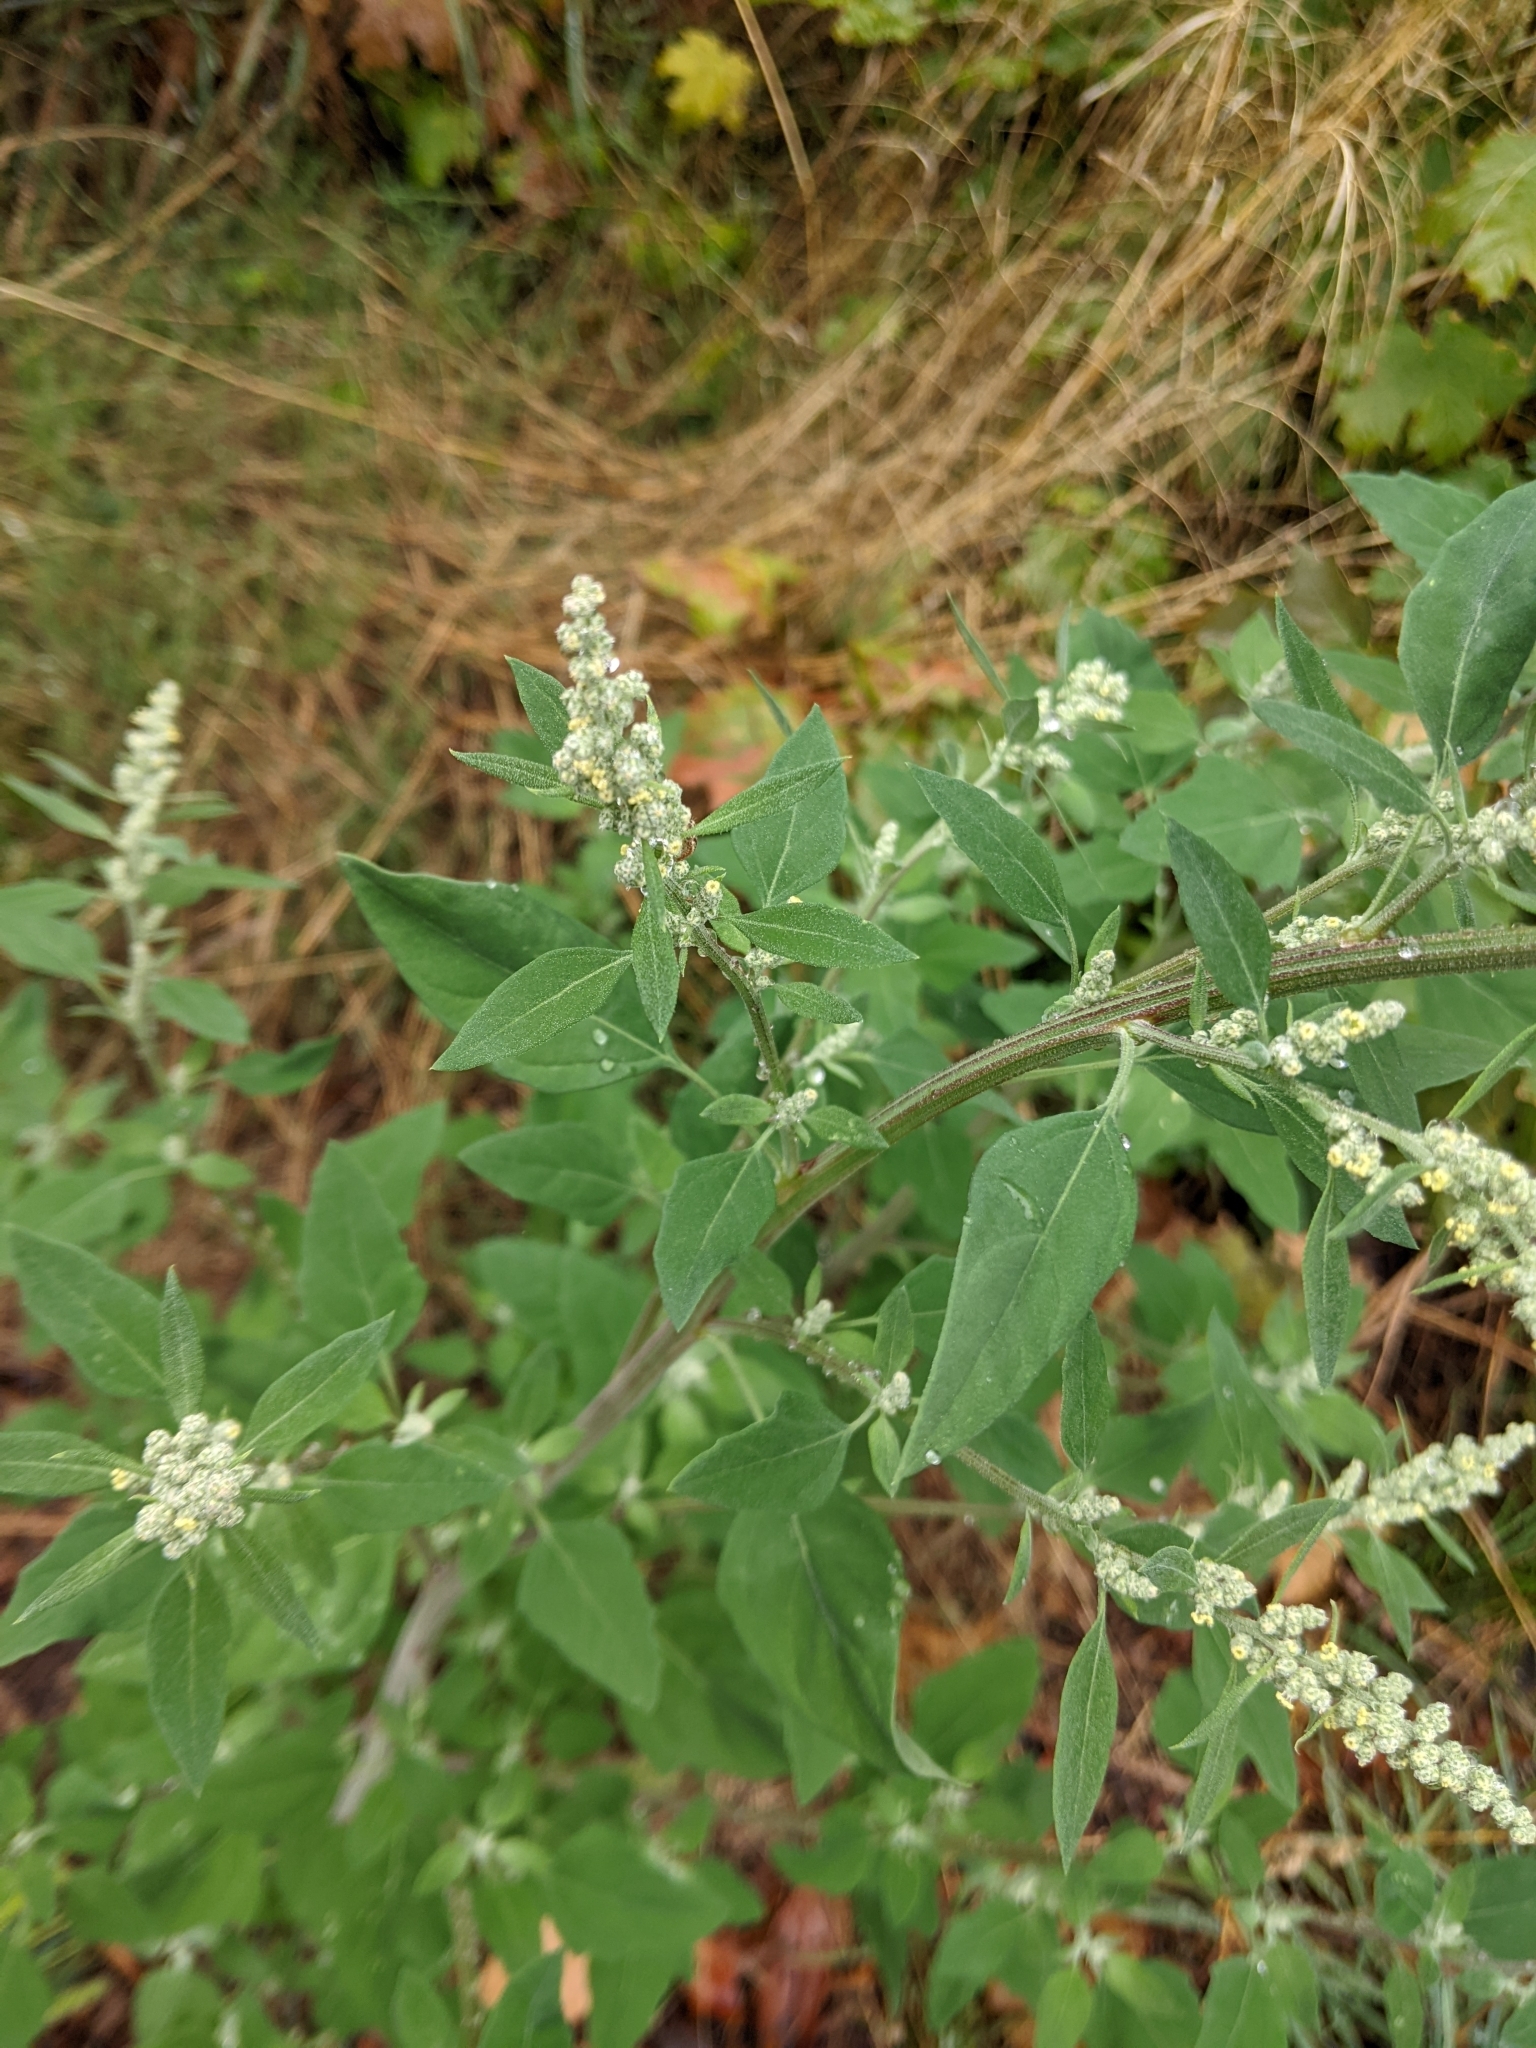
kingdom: Plantae
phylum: Tracheophyta
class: Magnoliopsida
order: Caryophyllales
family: Amaranthaceae
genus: Chenopodium
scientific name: Chenopodium album
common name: Fat-hen
